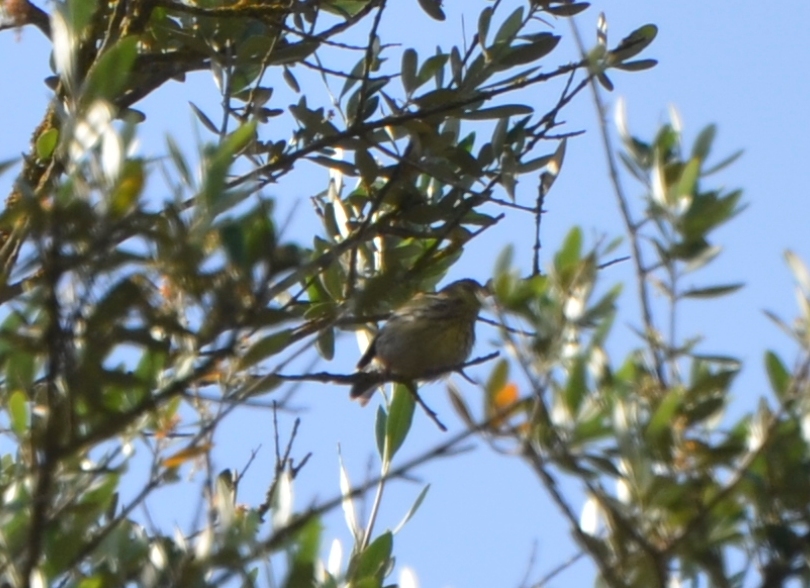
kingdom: Animalia
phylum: Chordata
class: Aves
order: Passeriformes
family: Fringillidae
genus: Serinus
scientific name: Serinus serinus
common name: European serin
